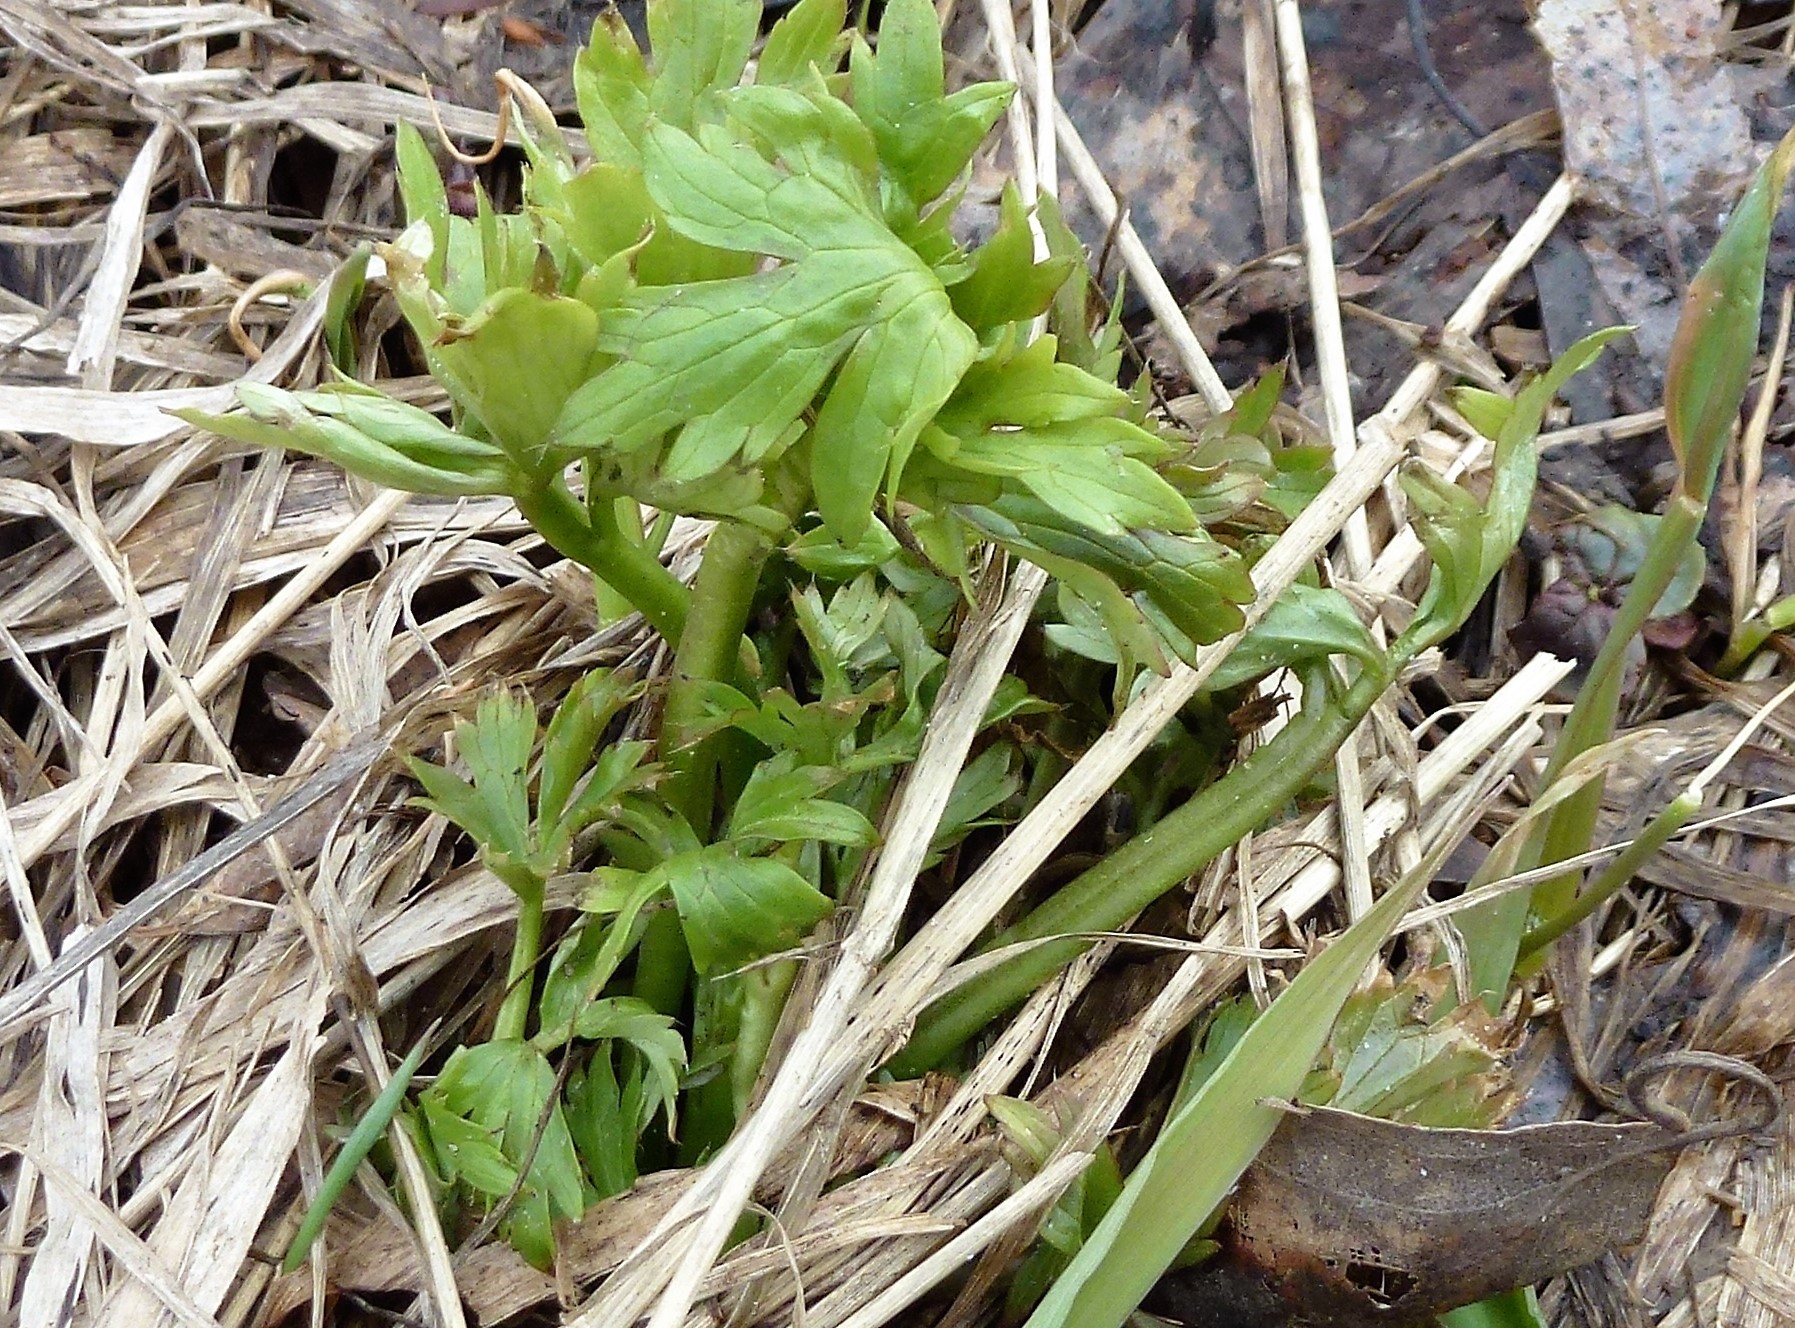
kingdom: Plantae
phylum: Tracheophyta
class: Magnoliopsida
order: Ranunculales
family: Ranunculaceae
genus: Ranunculus
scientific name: Ranunculus propinquus
